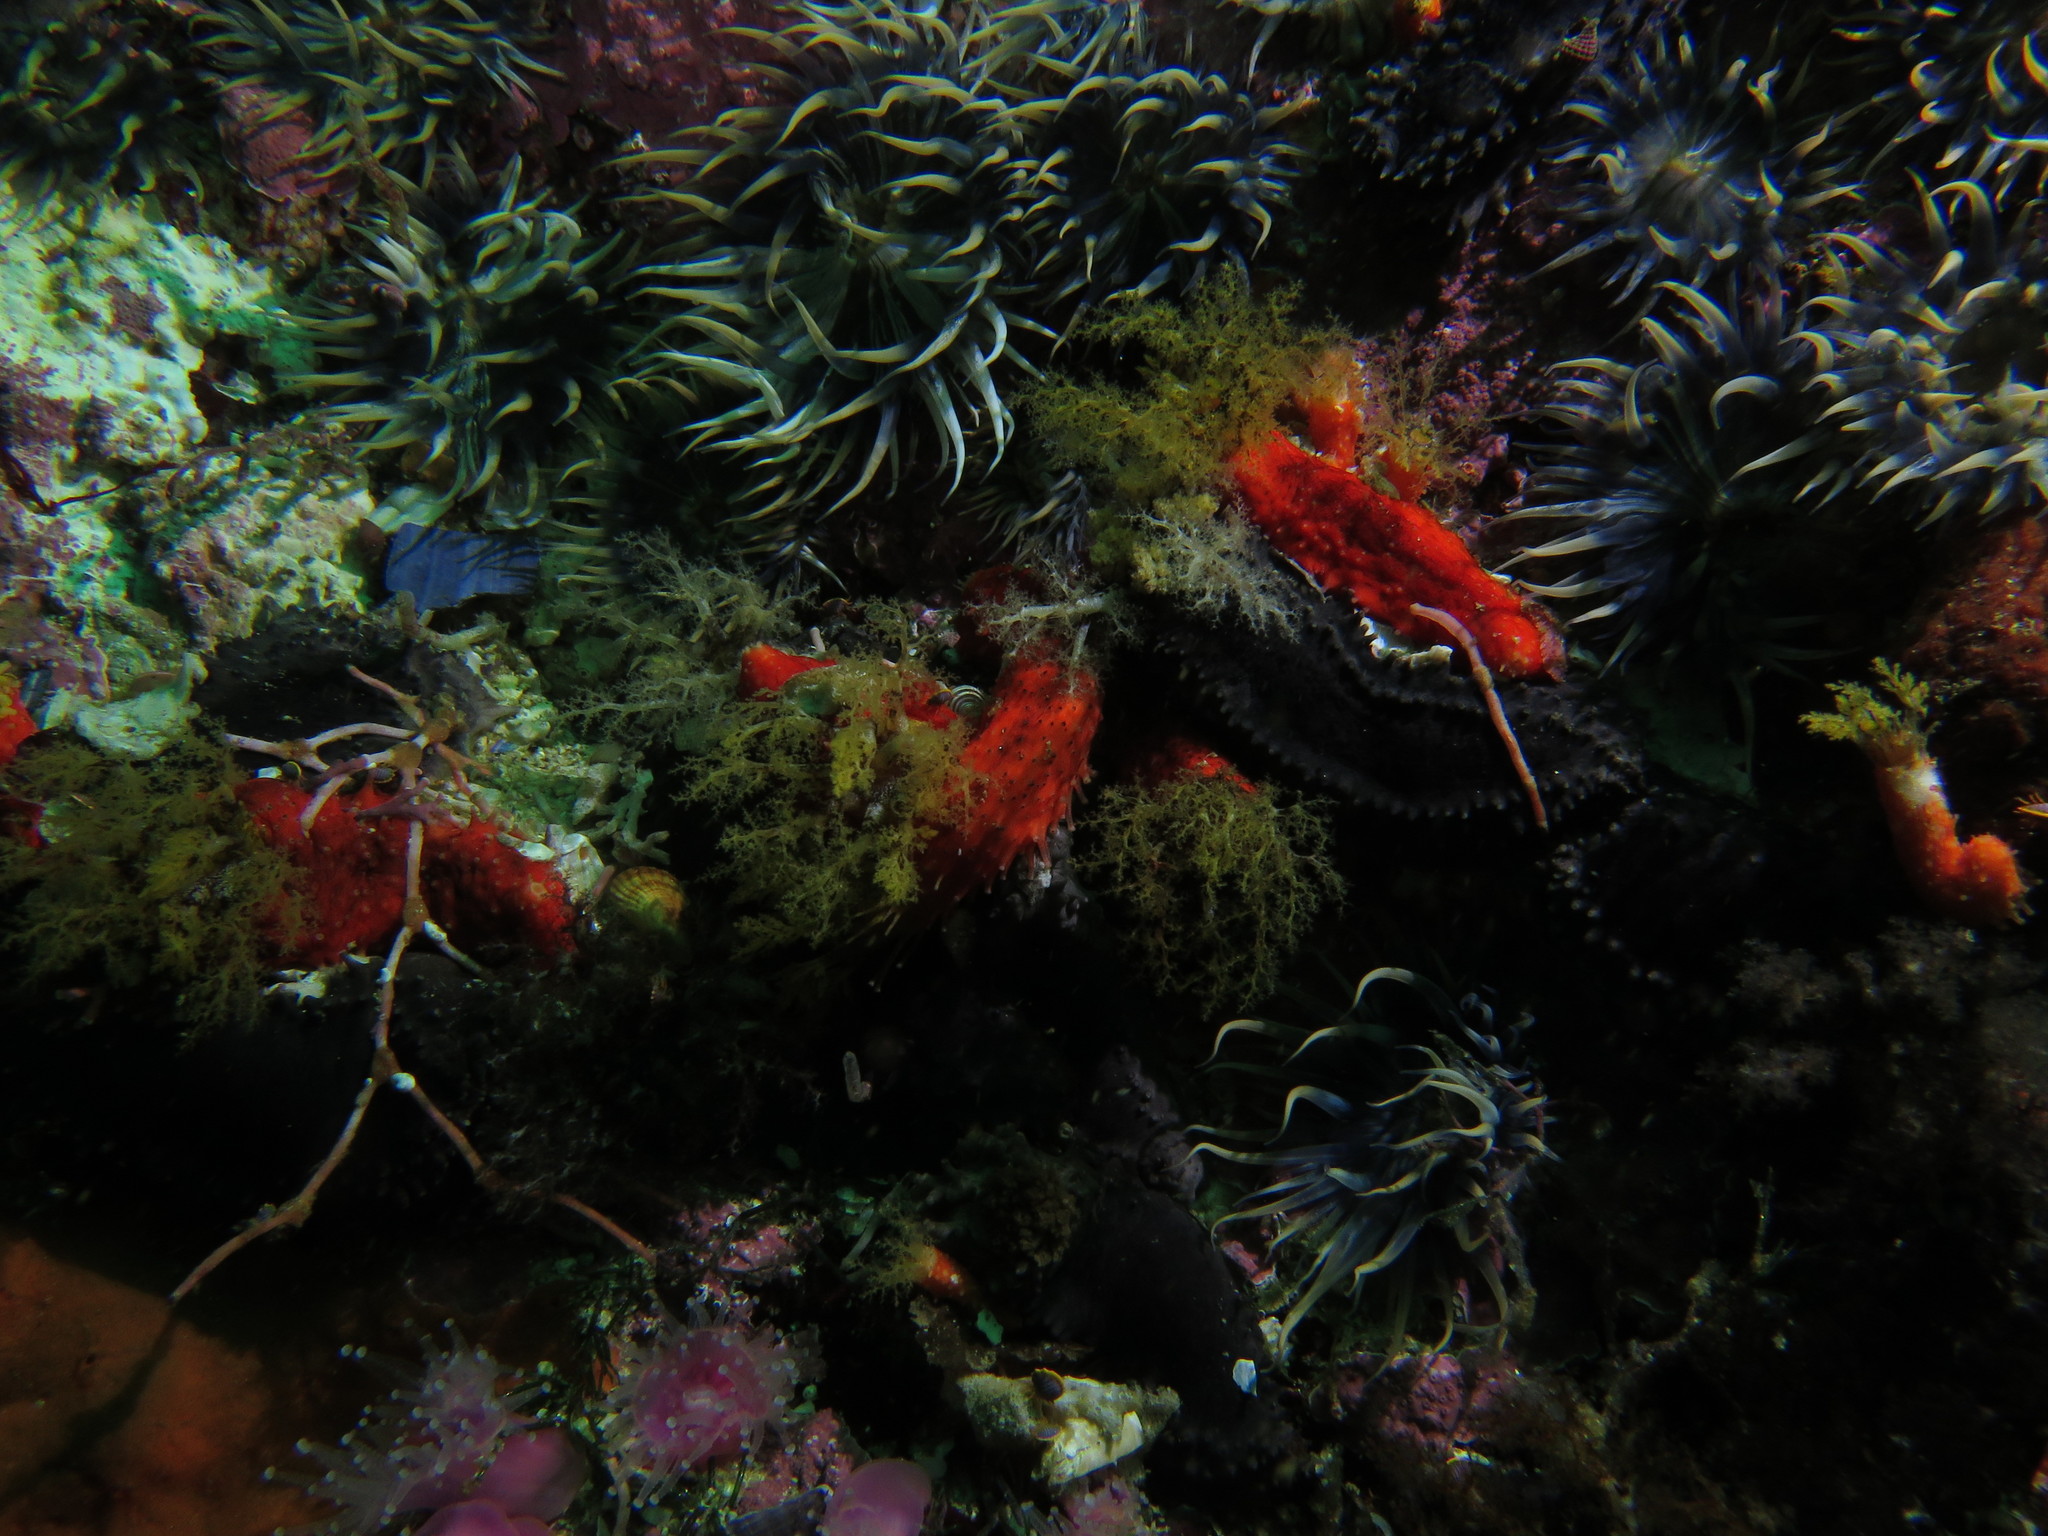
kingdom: Animalia
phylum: Echinodermata
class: Holothuroidea
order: Dendrochirotida
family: Cucumariidae
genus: Hemiocnus
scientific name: Hemiocnus insolens
